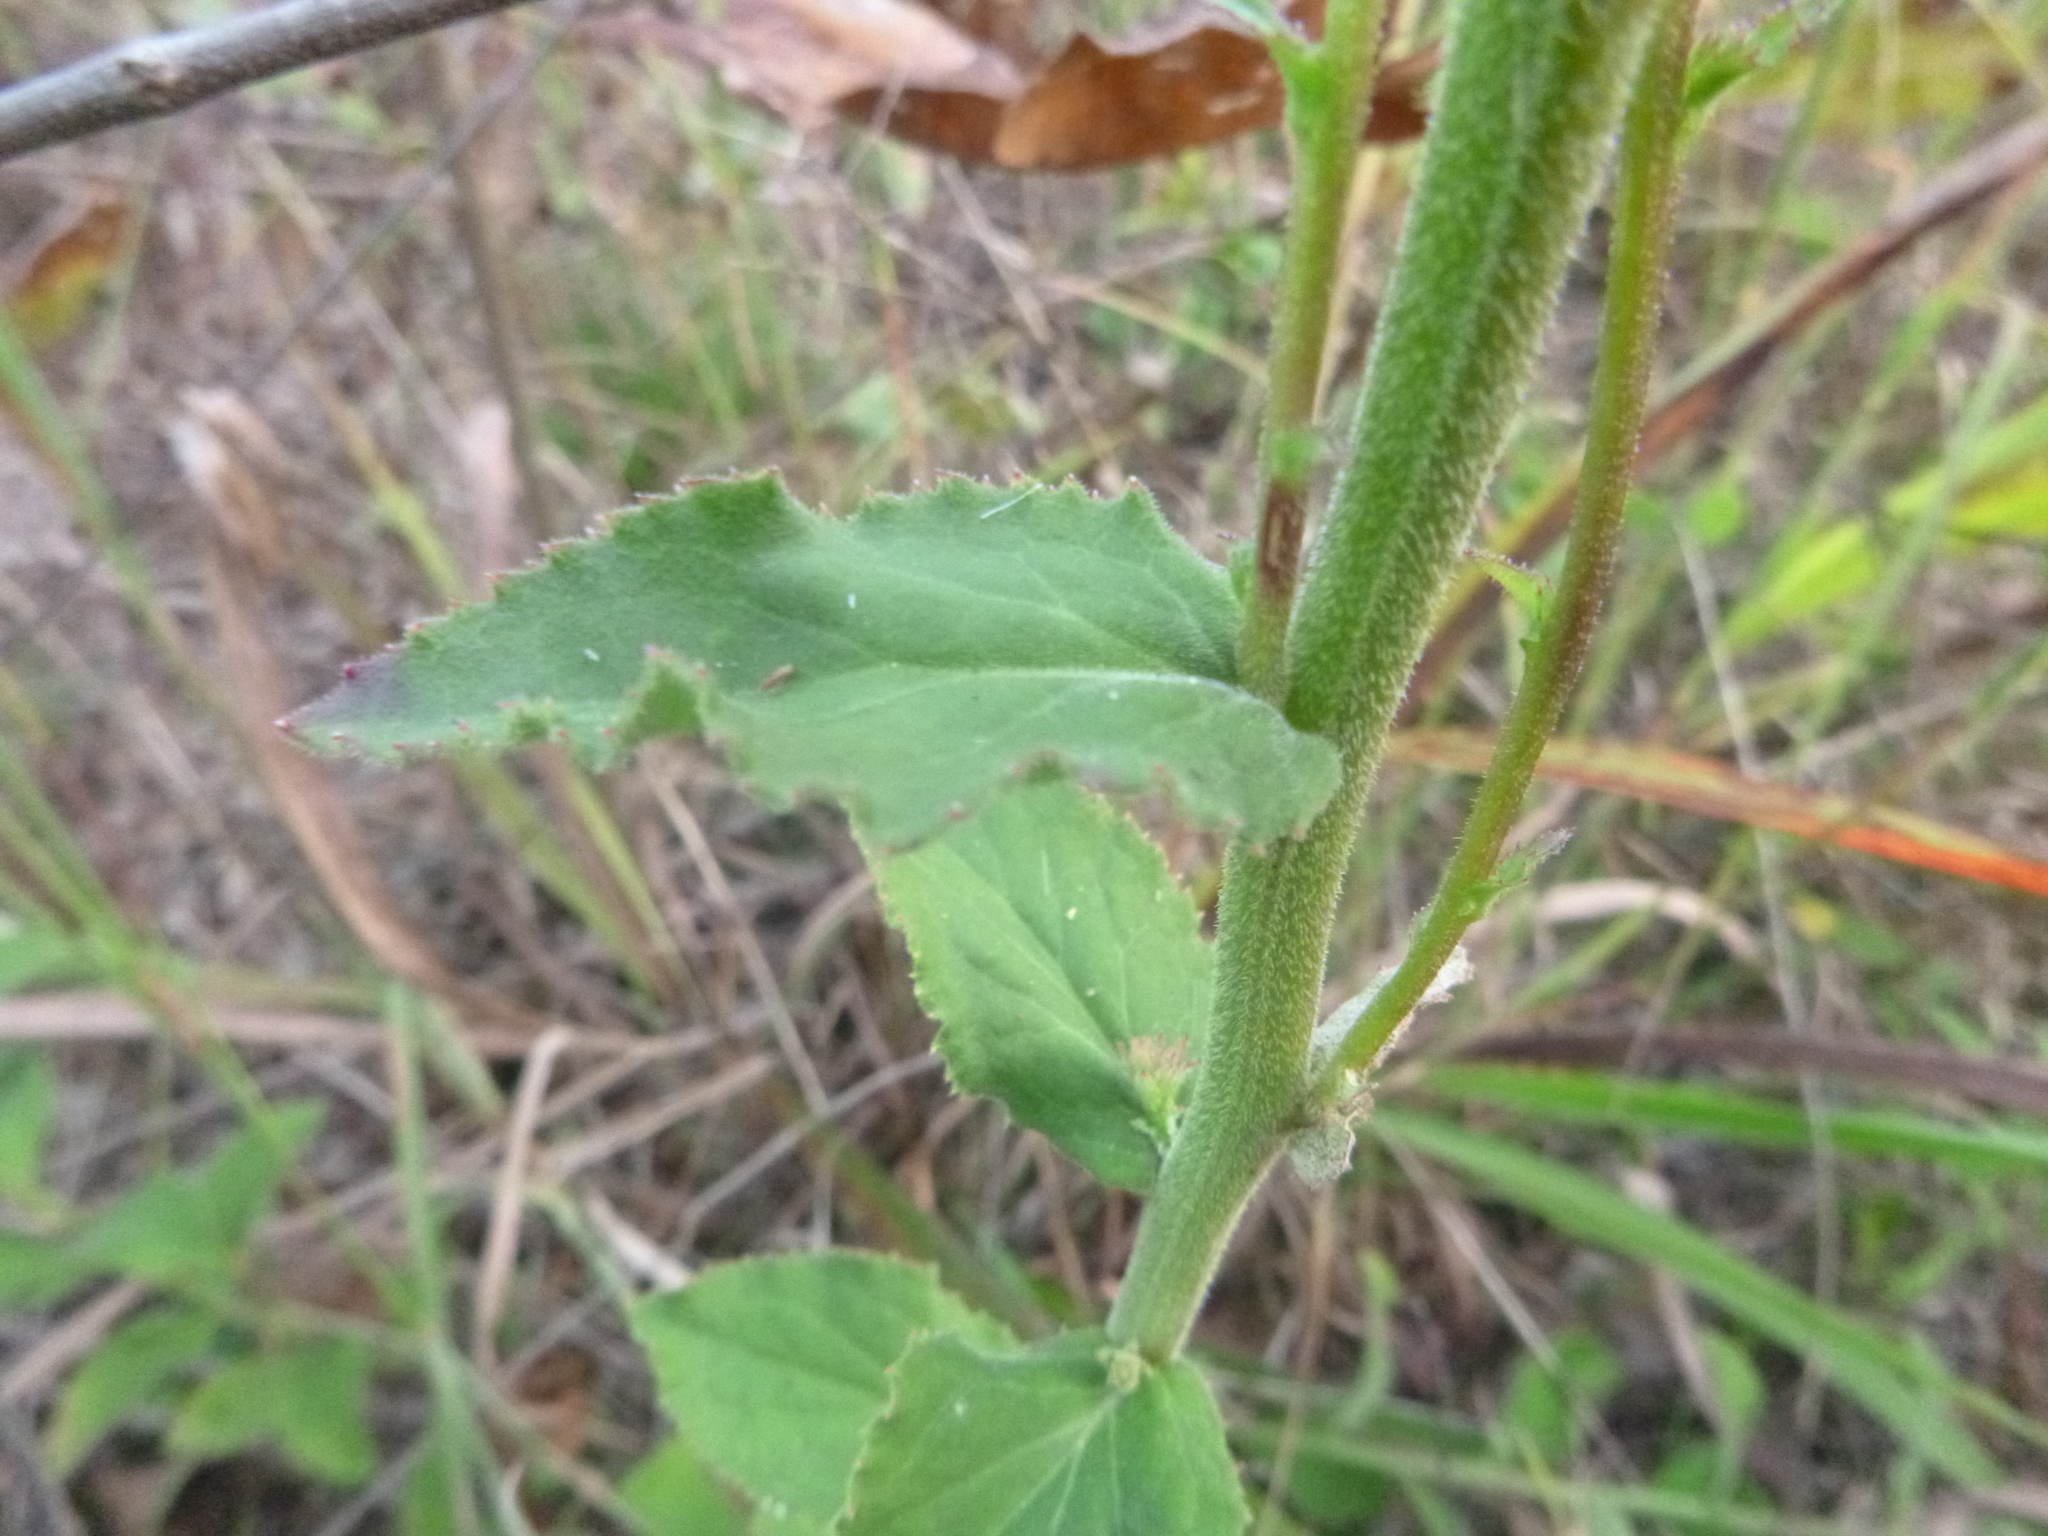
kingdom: Plantae
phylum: Tracheophyta
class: Magnoliopsida
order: Asterales
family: Campanulaceae
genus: Lobelia
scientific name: Lobelia puberula
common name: Purple dewdrop
